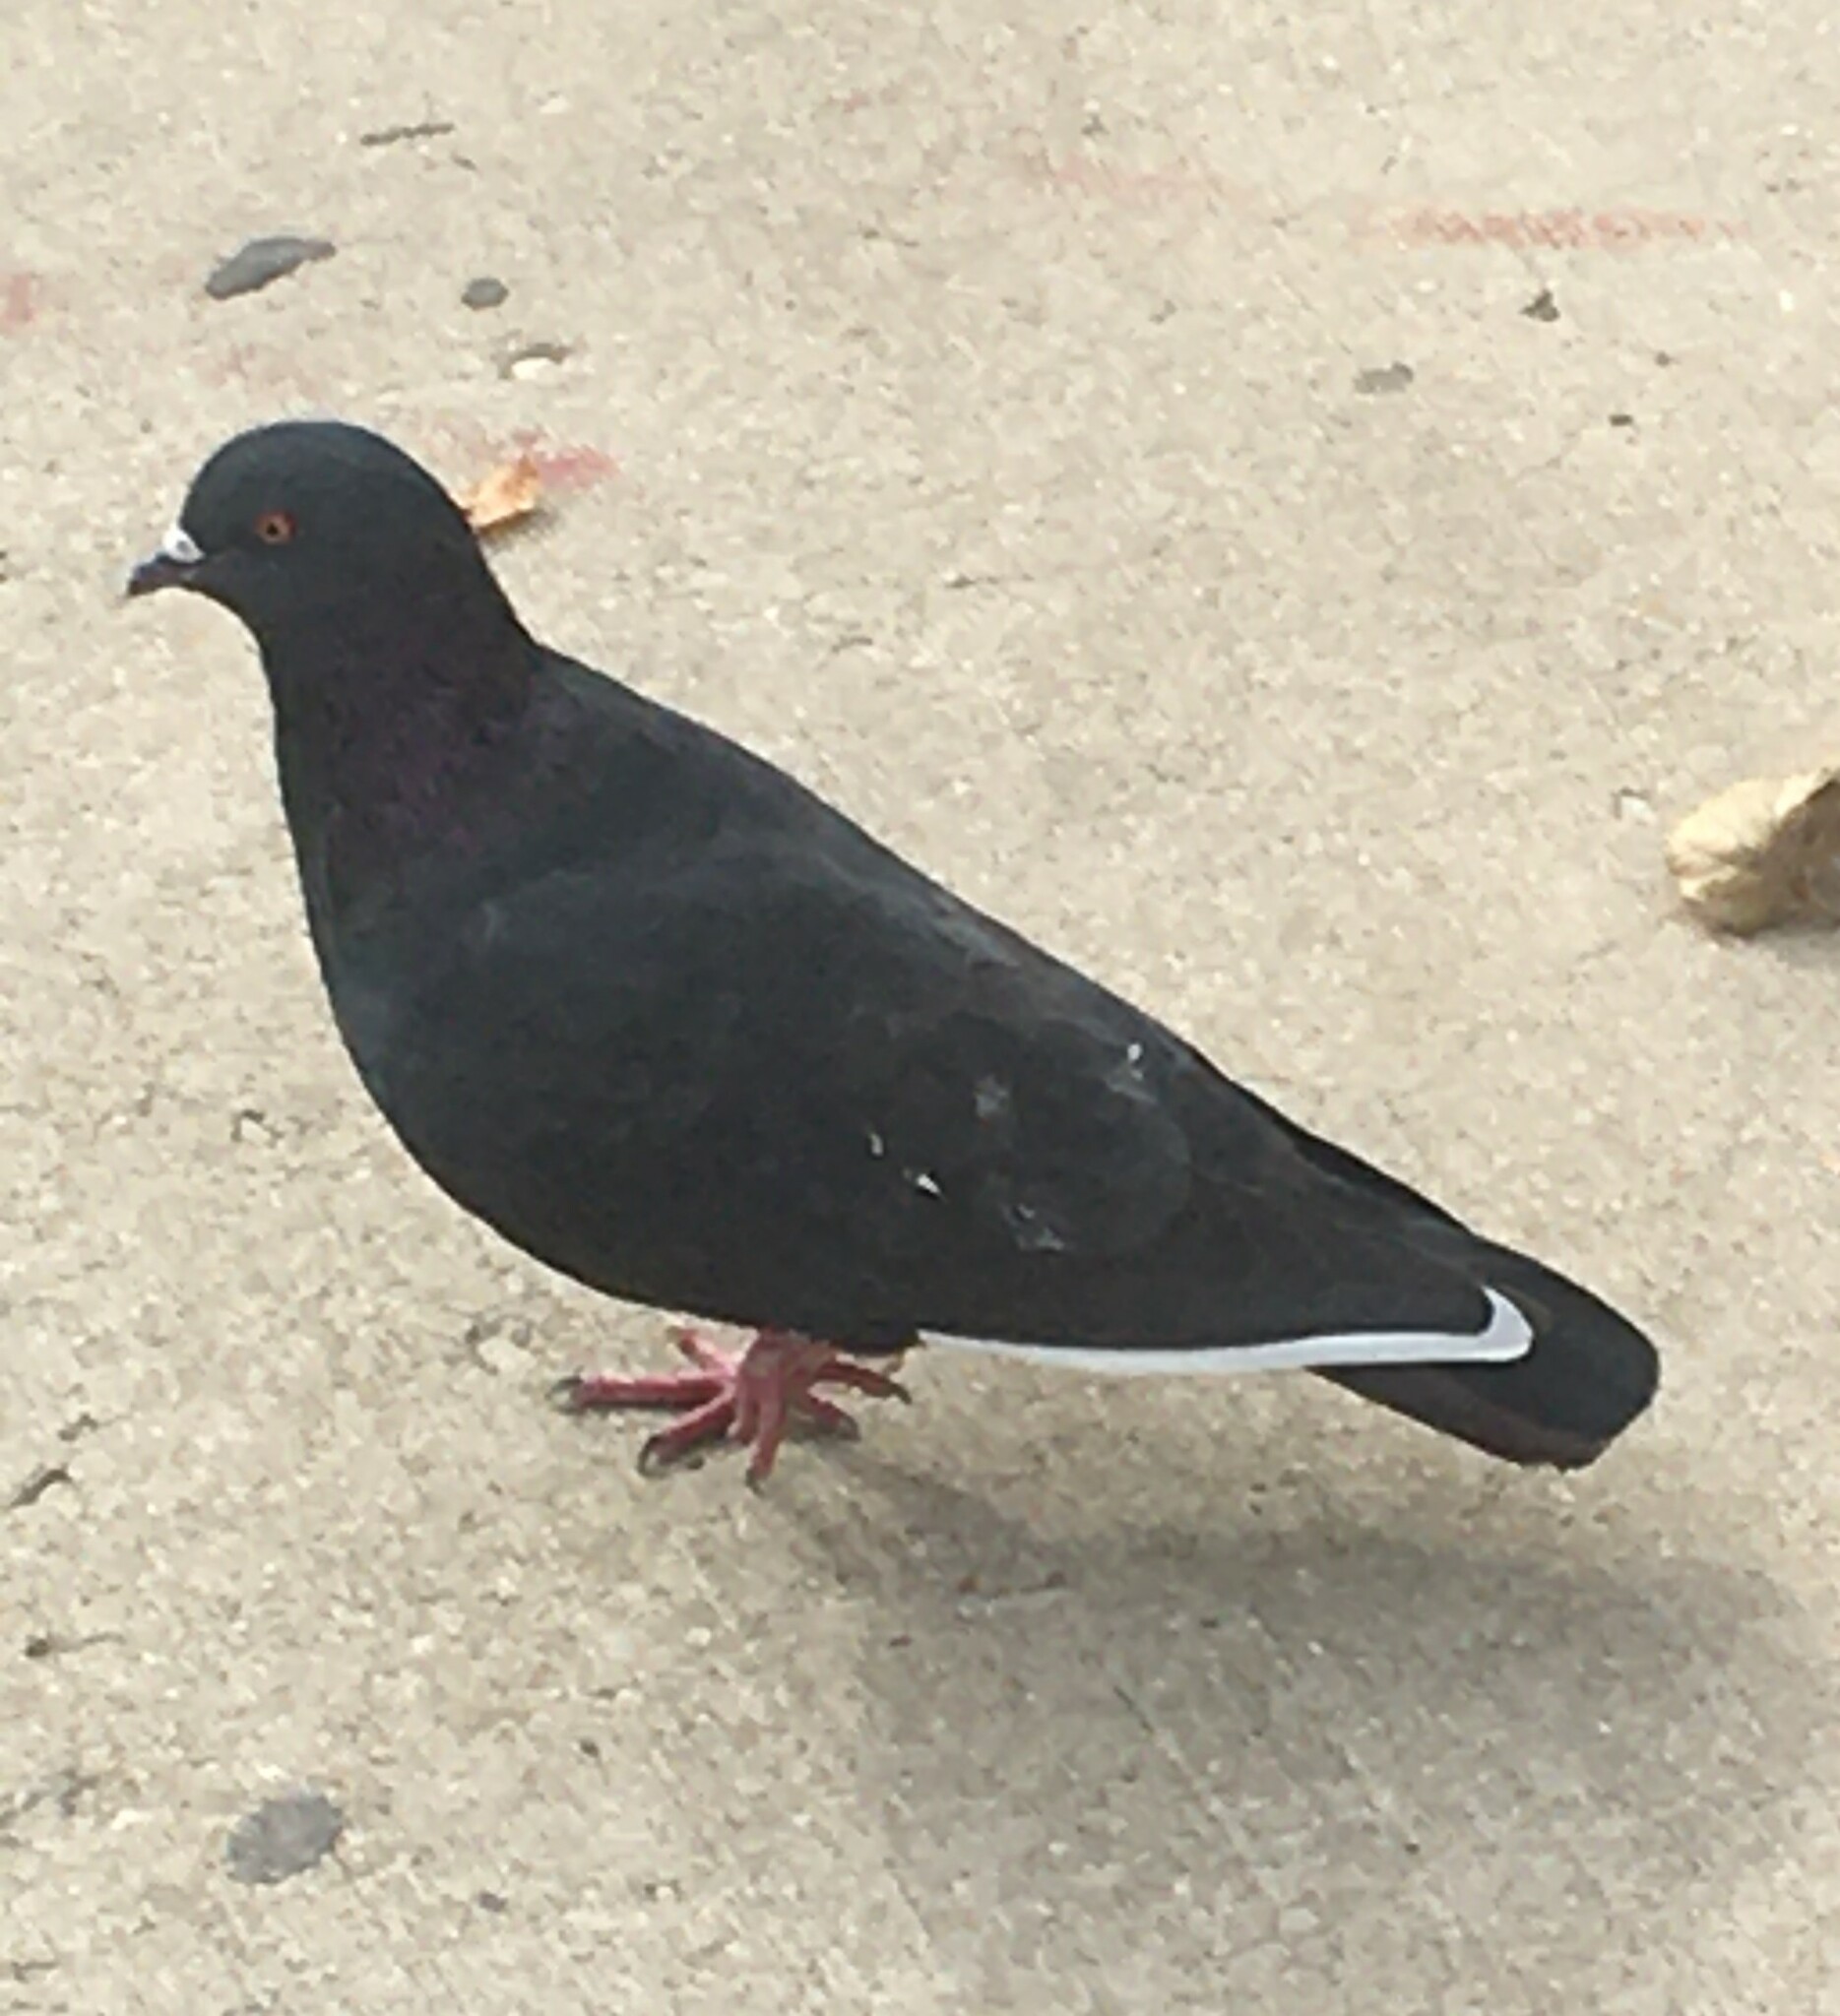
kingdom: Animalia
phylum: Chordata
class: Aves
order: Columbiformes
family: Columbidae
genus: Columba
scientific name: Columba livia
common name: Rock pigeon
